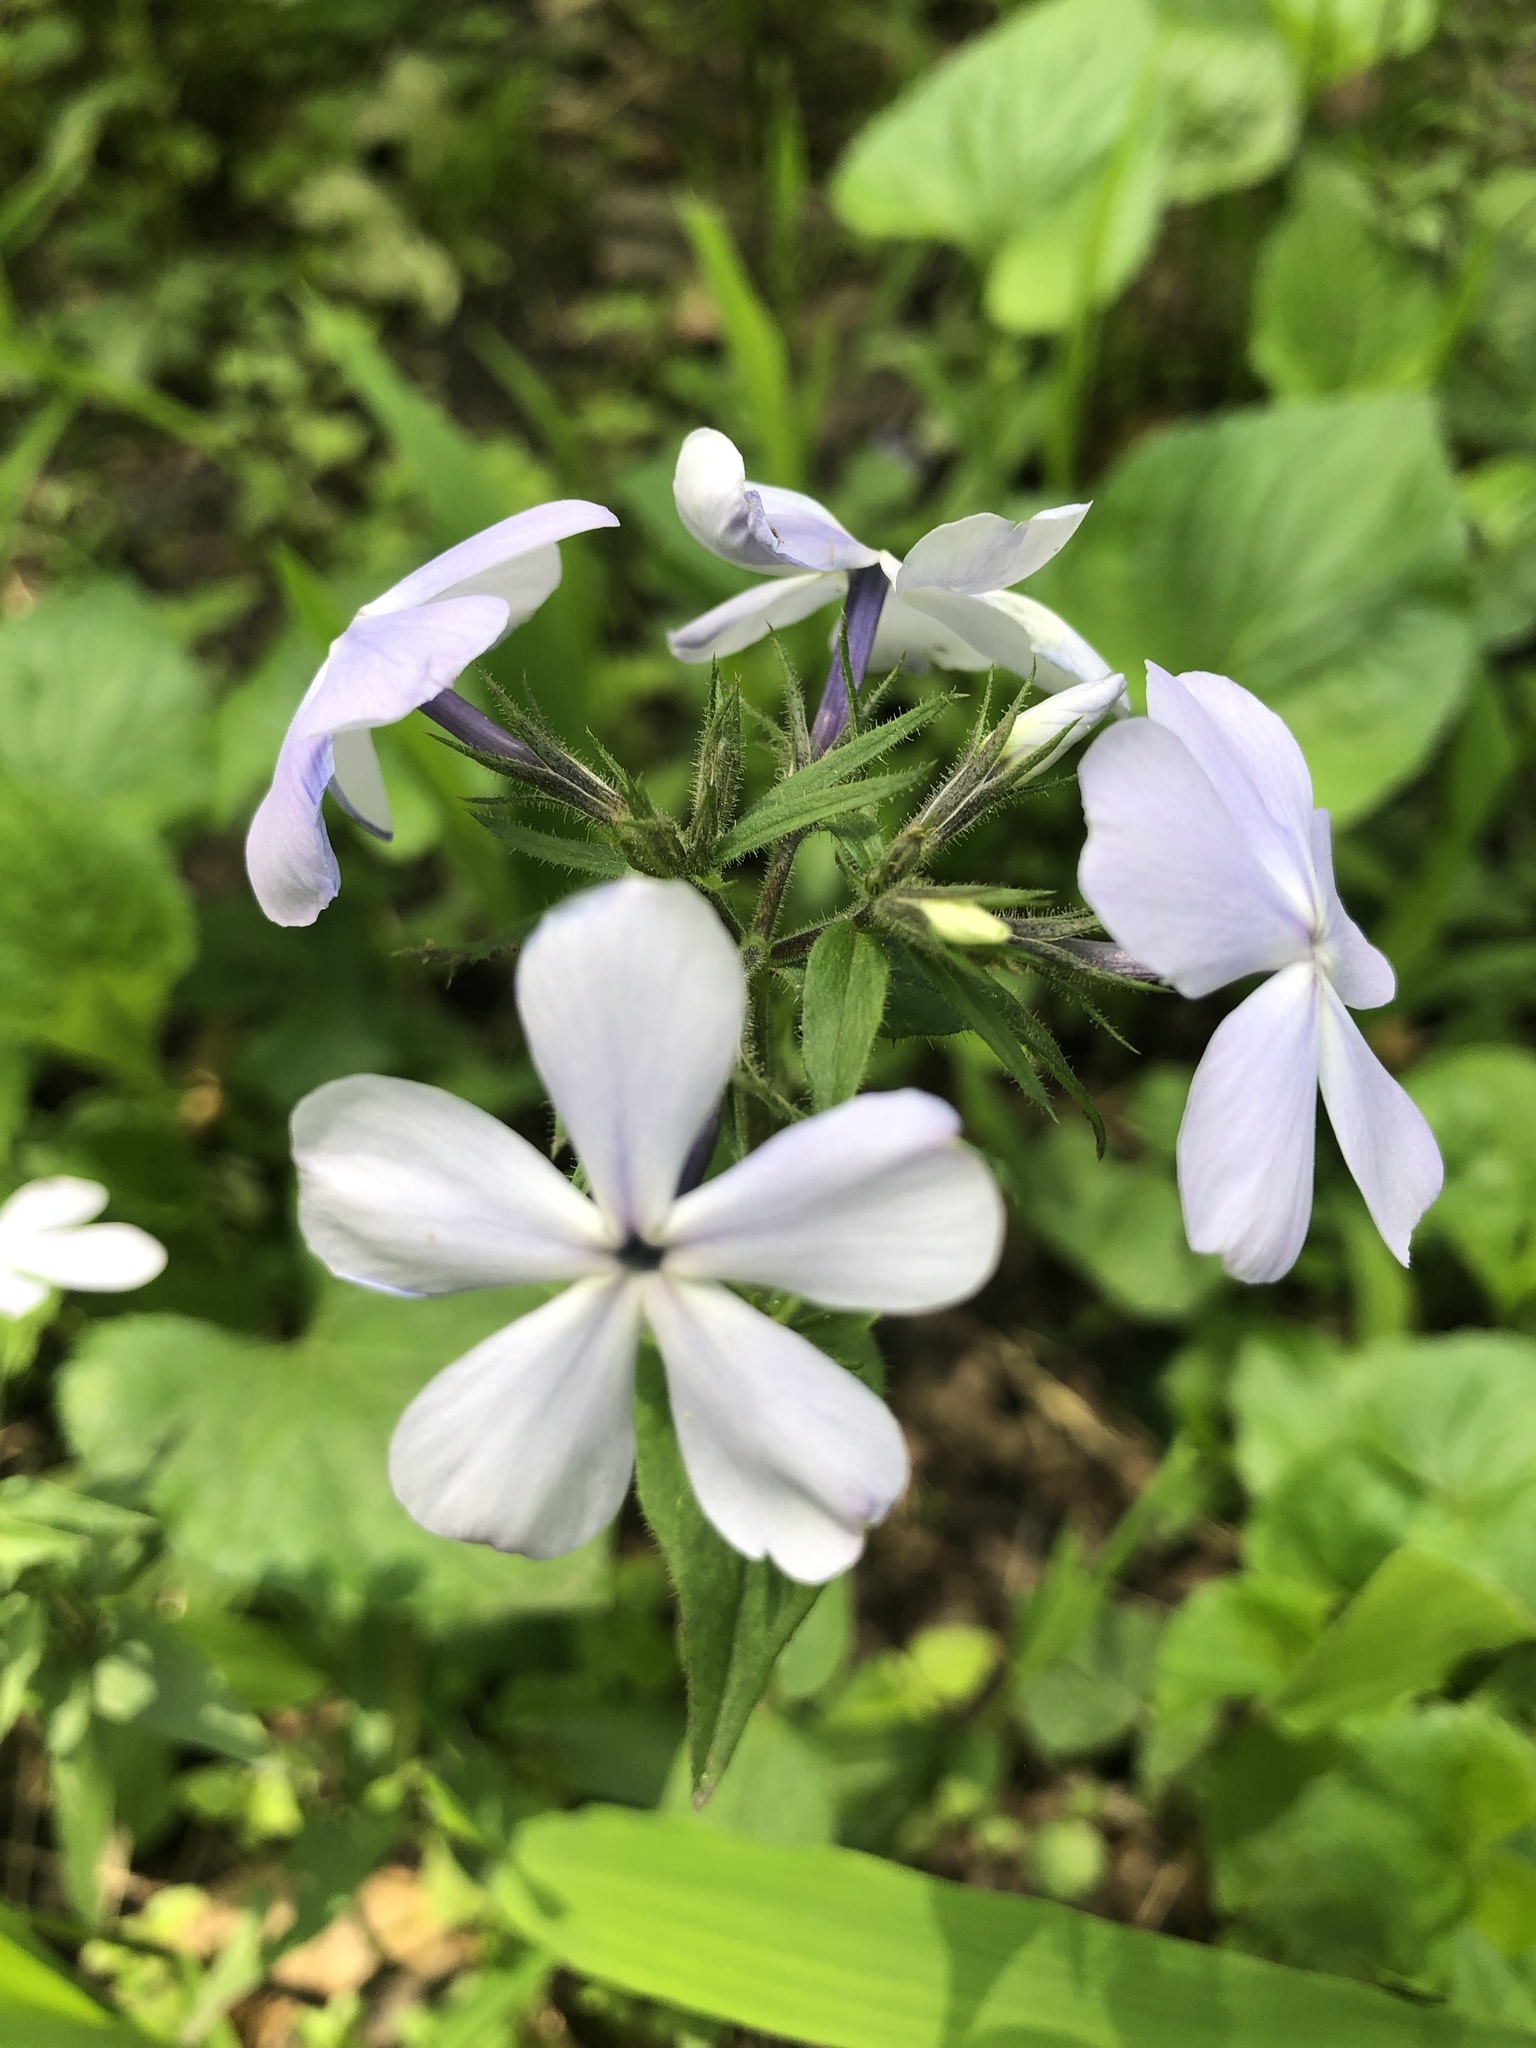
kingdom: Plantae
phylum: Tracheophyta
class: Magnoliopsida
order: Ericales
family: Polemoniaceae
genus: Phlox
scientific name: Phlox divaricata
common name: Blue phlox
